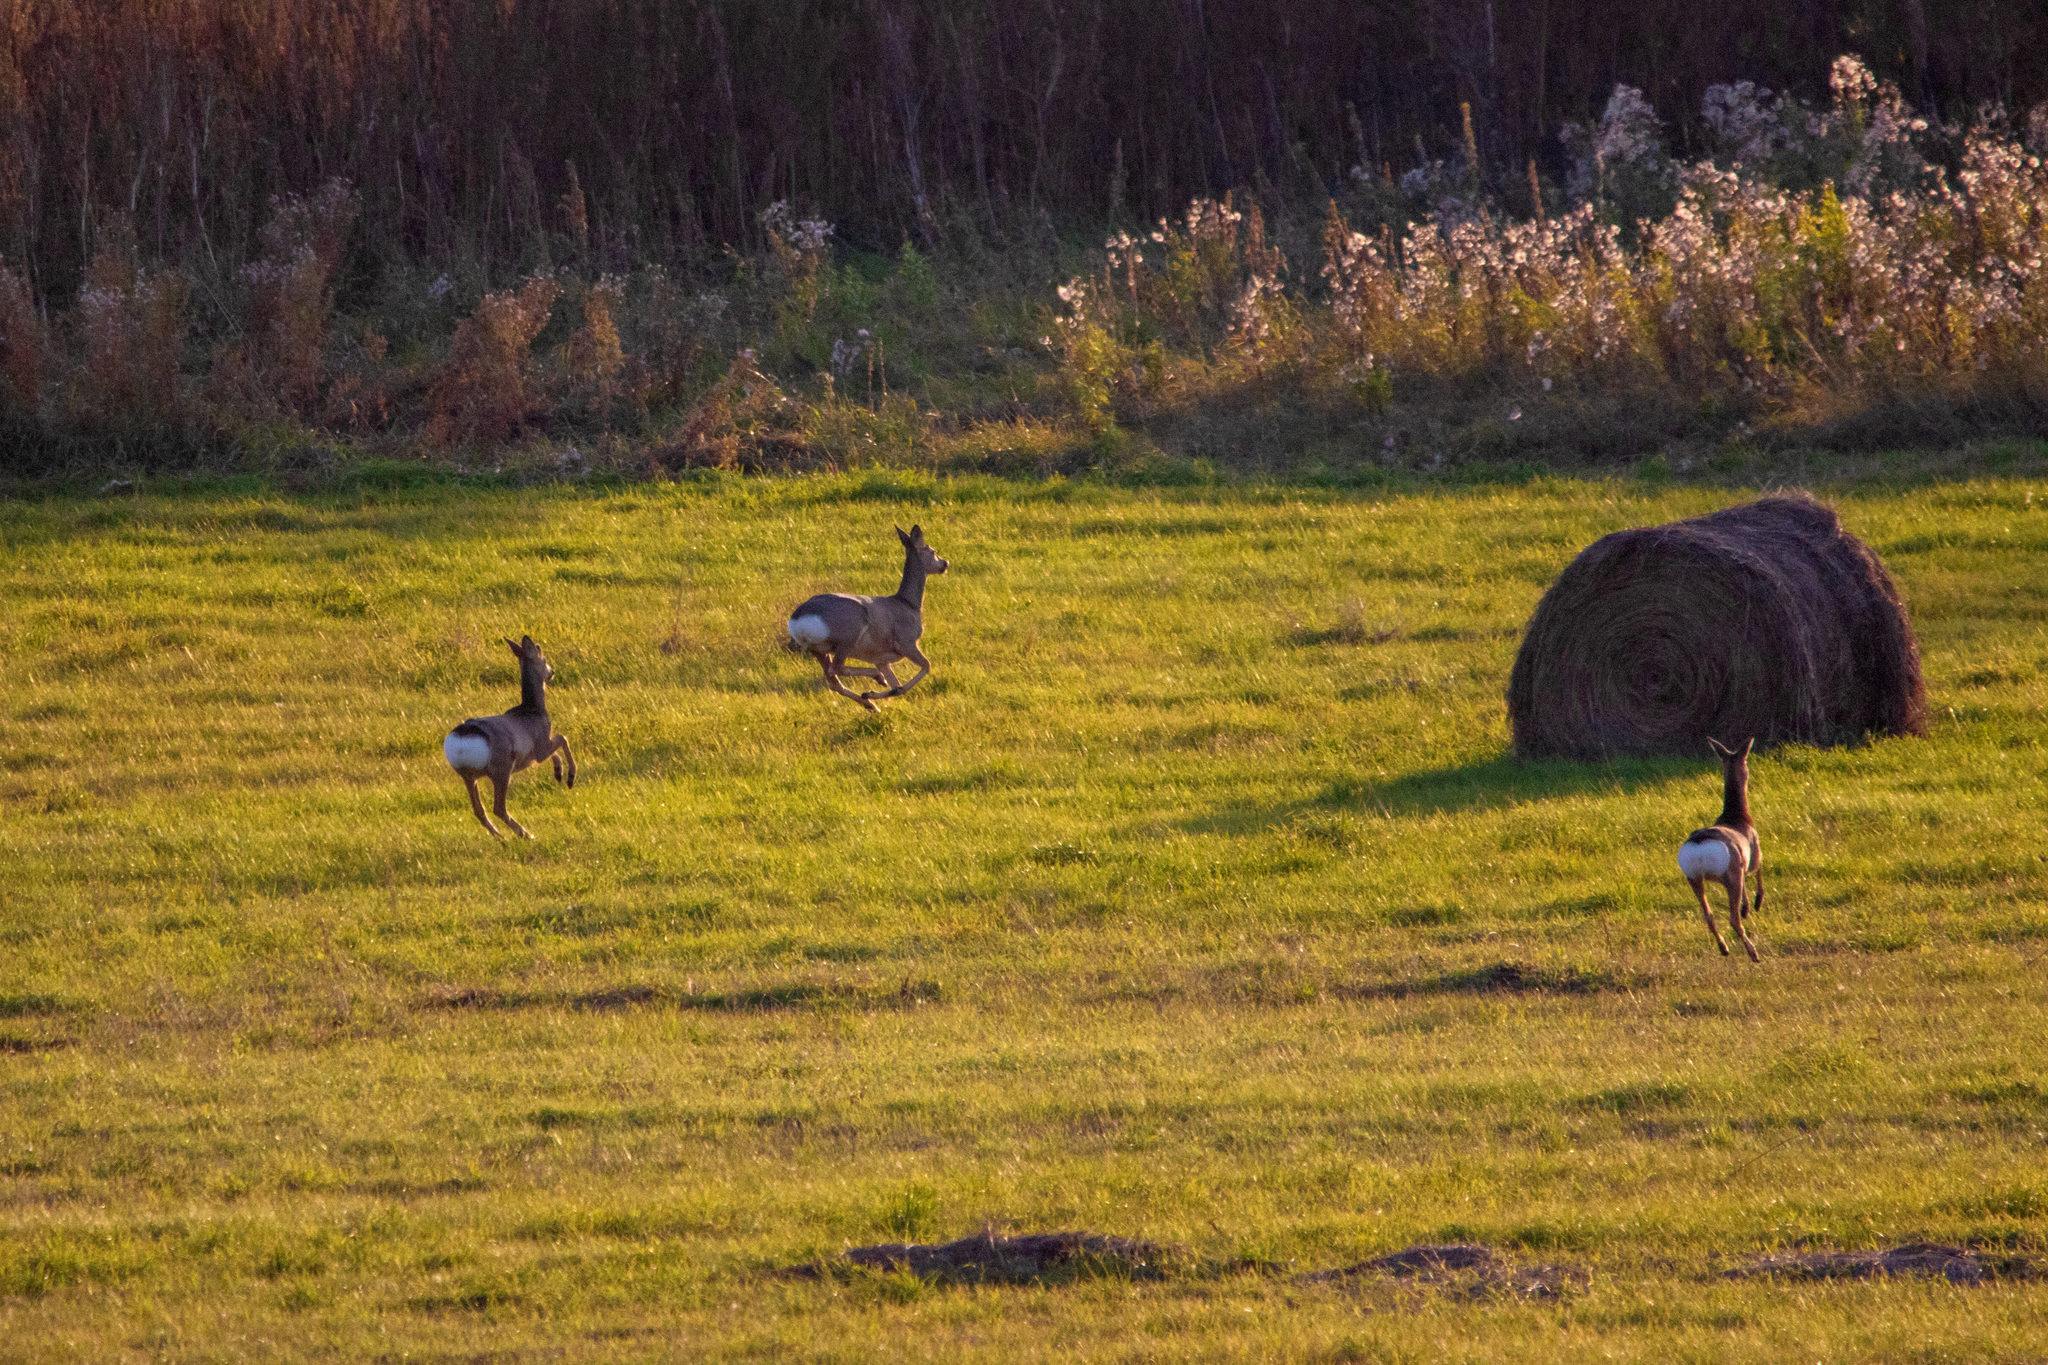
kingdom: Animalia
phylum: Chordata
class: Mammalia
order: Artiodactyla
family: Cervidae
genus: Capreolus
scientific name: Capreolus pygargus
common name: Siberian roe
